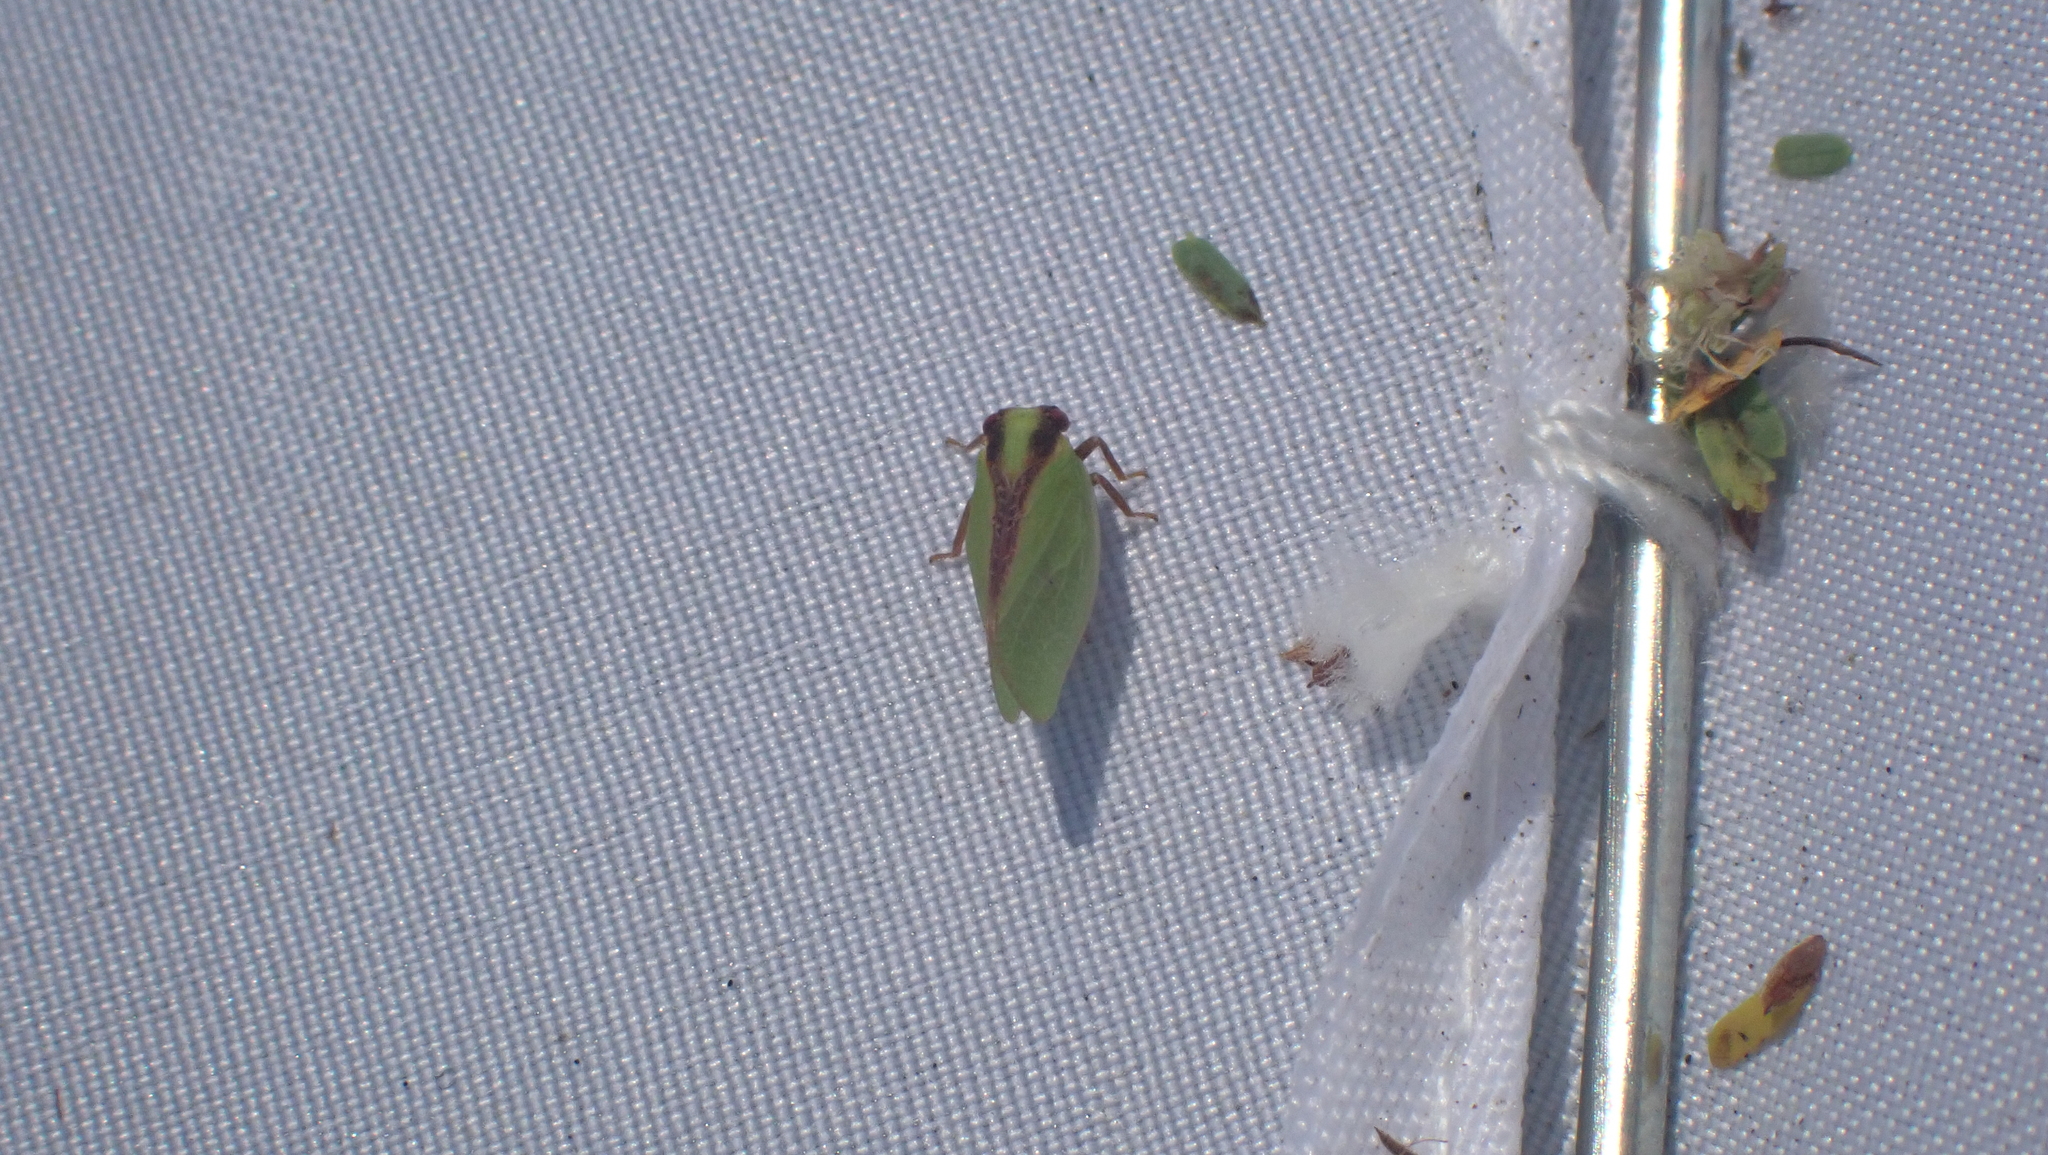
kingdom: Animalia
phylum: Arthropoda
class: Insecta
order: Hemiptera
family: Acanaloniidae
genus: Acanalonia
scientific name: Acanalonia bivittata
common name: Two-striped planthopper
